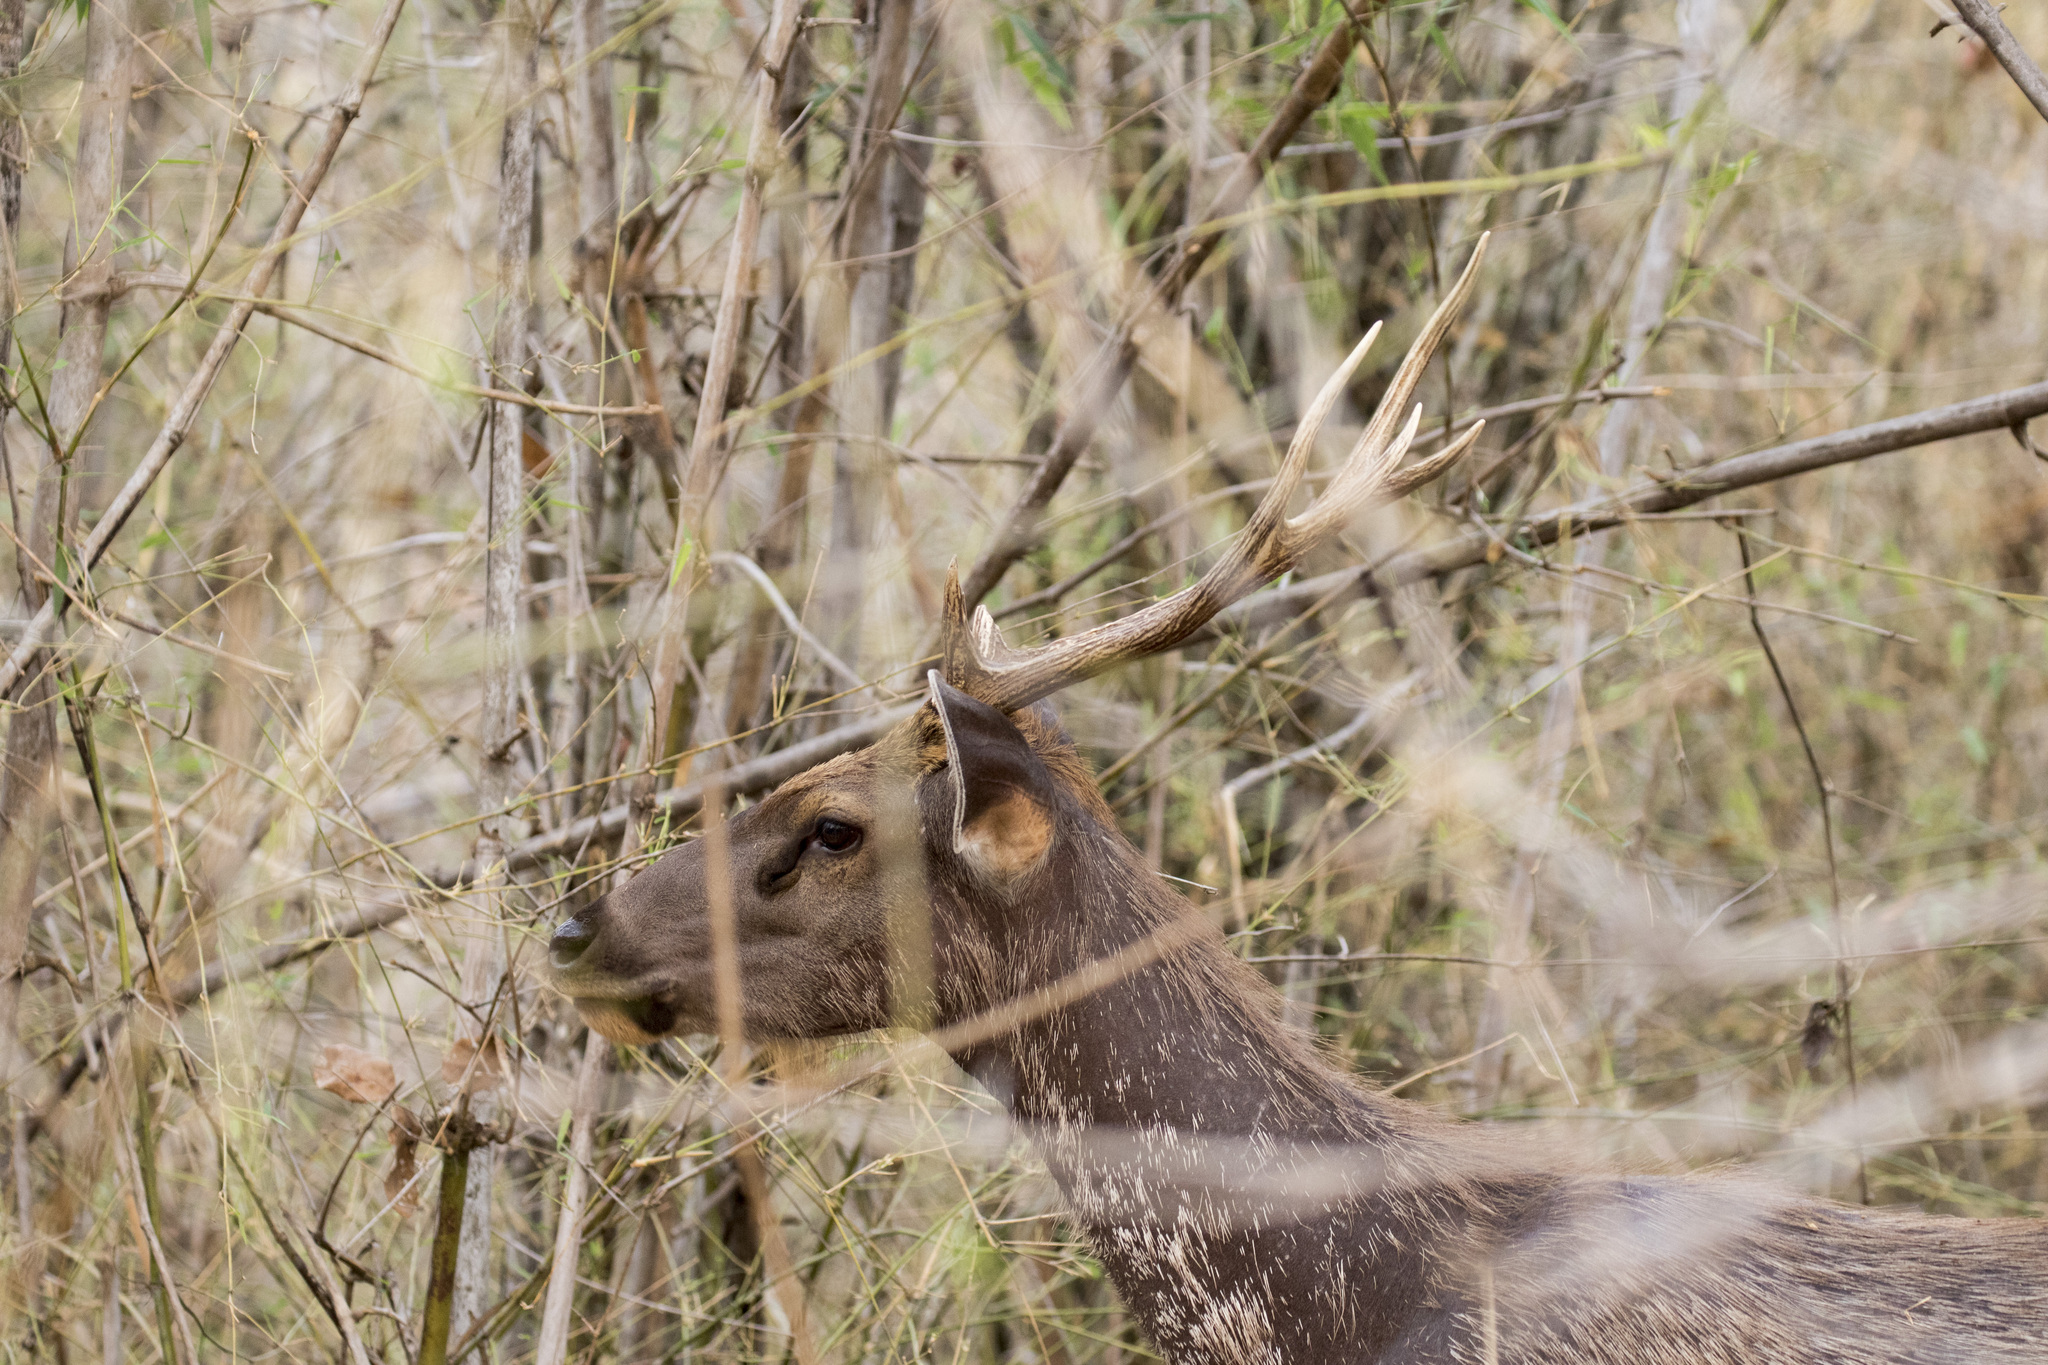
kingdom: Animalia
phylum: Chordata
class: Mammalia
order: Artiodactyla
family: Cervidae
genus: Rusa
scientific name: Rusa unicolor
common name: Sambar
